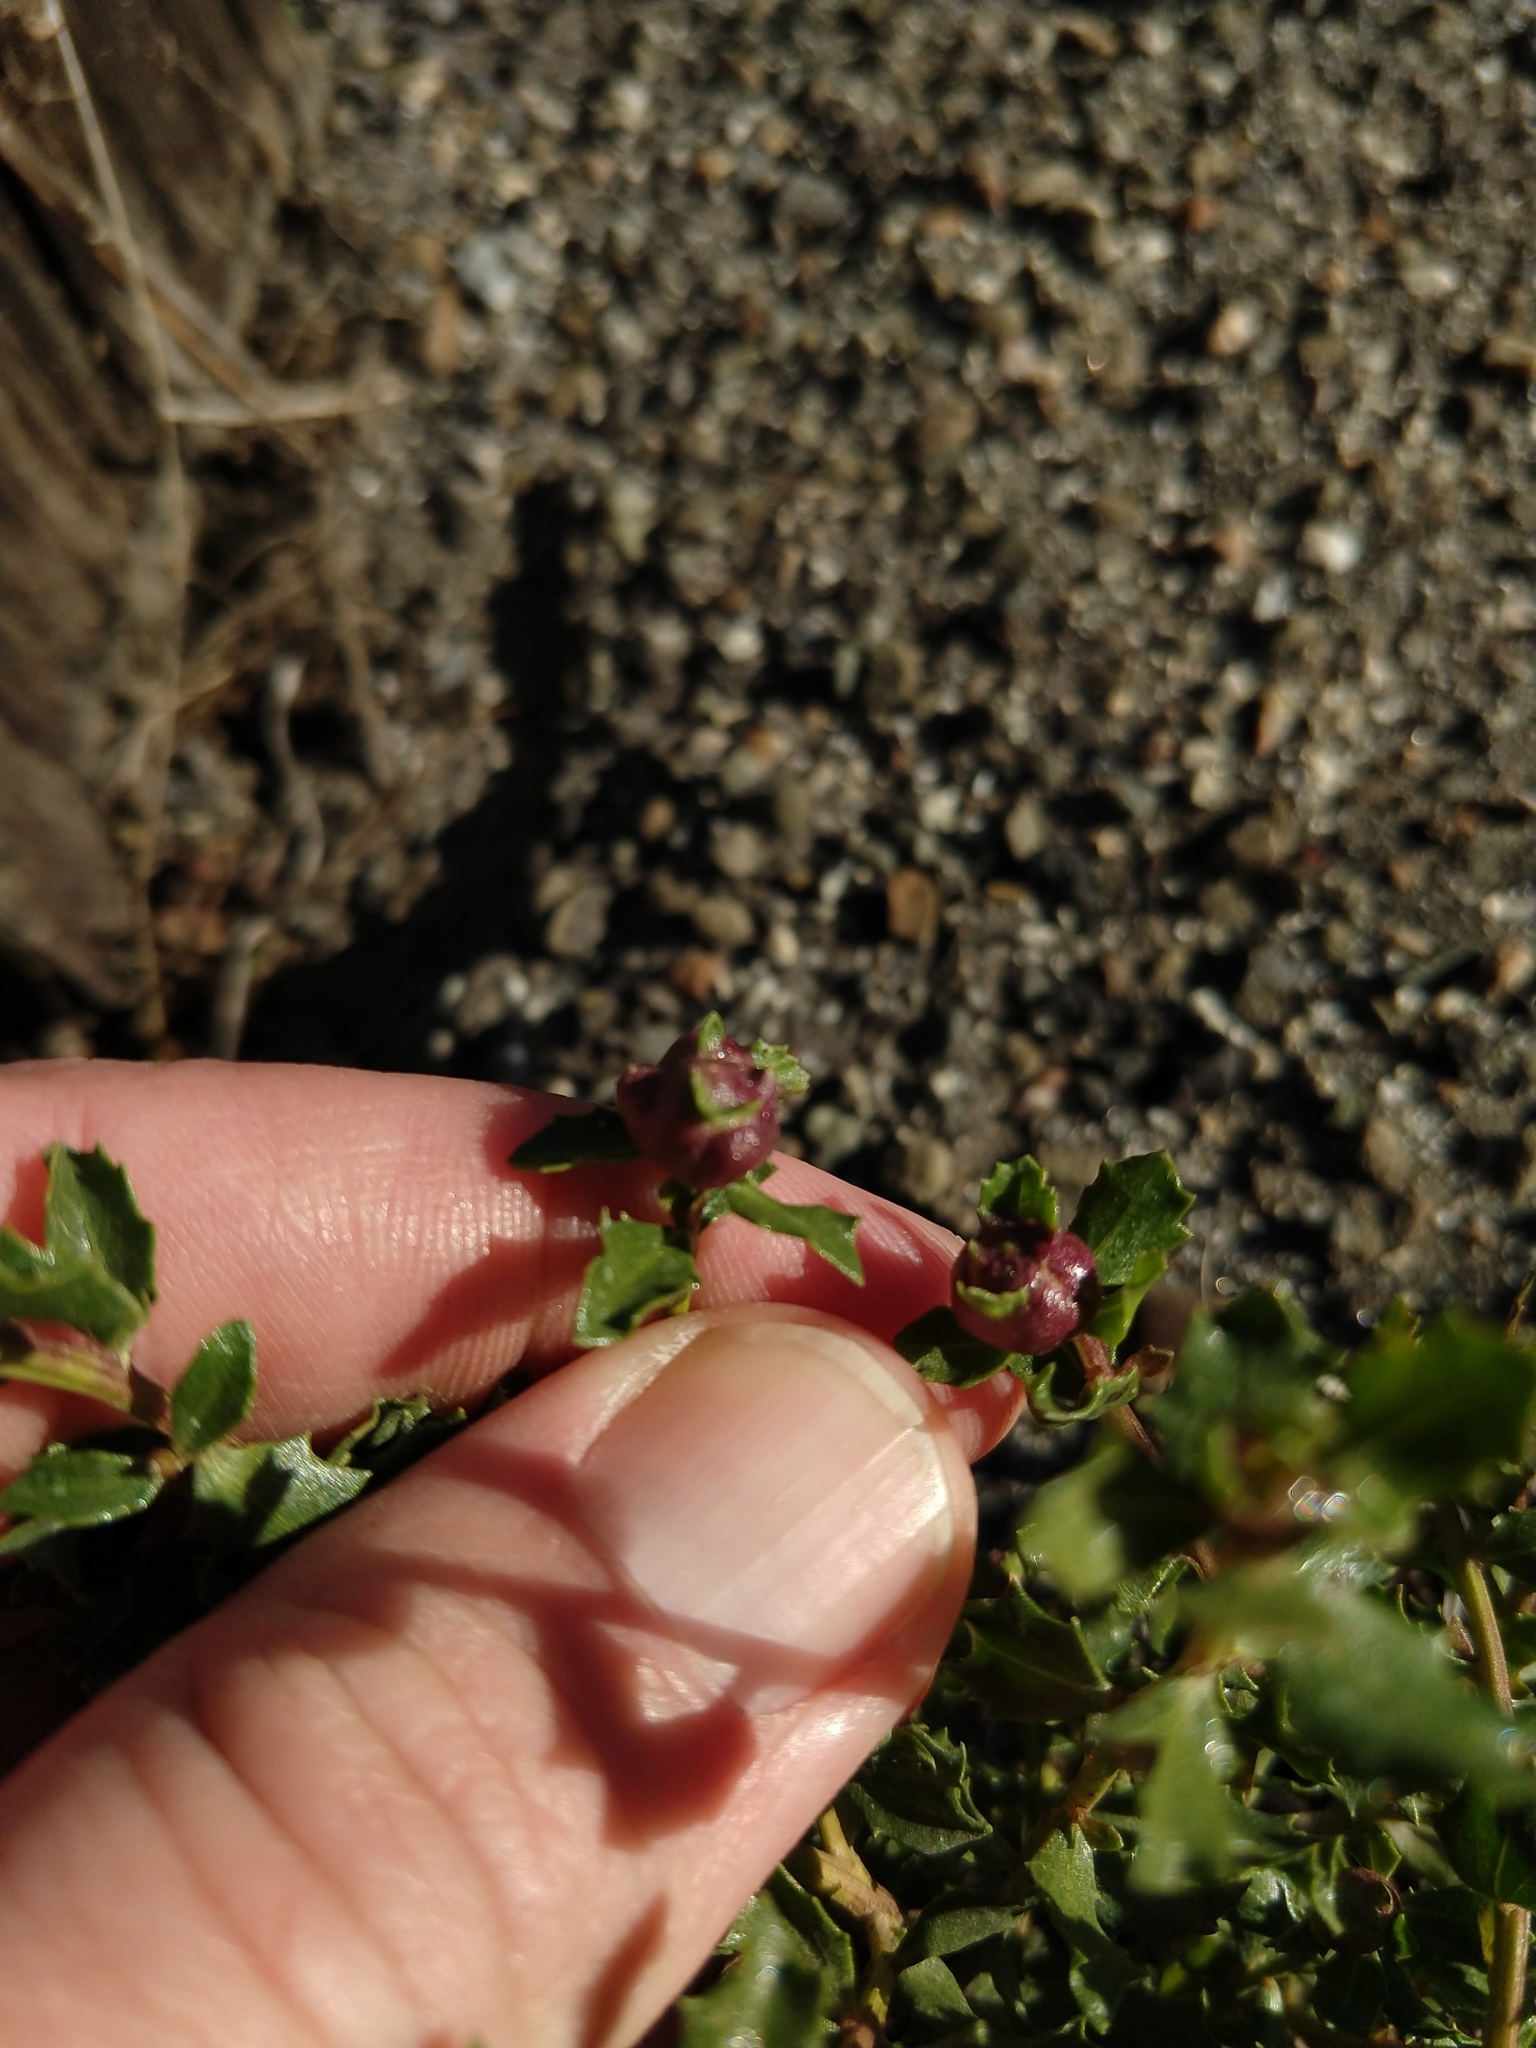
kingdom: Animalia
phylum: Arthropoda
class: Insecta
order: Diptera
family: Cecidomyiidae
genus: Rhopalomyia
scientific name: Rhopalomyia californica
